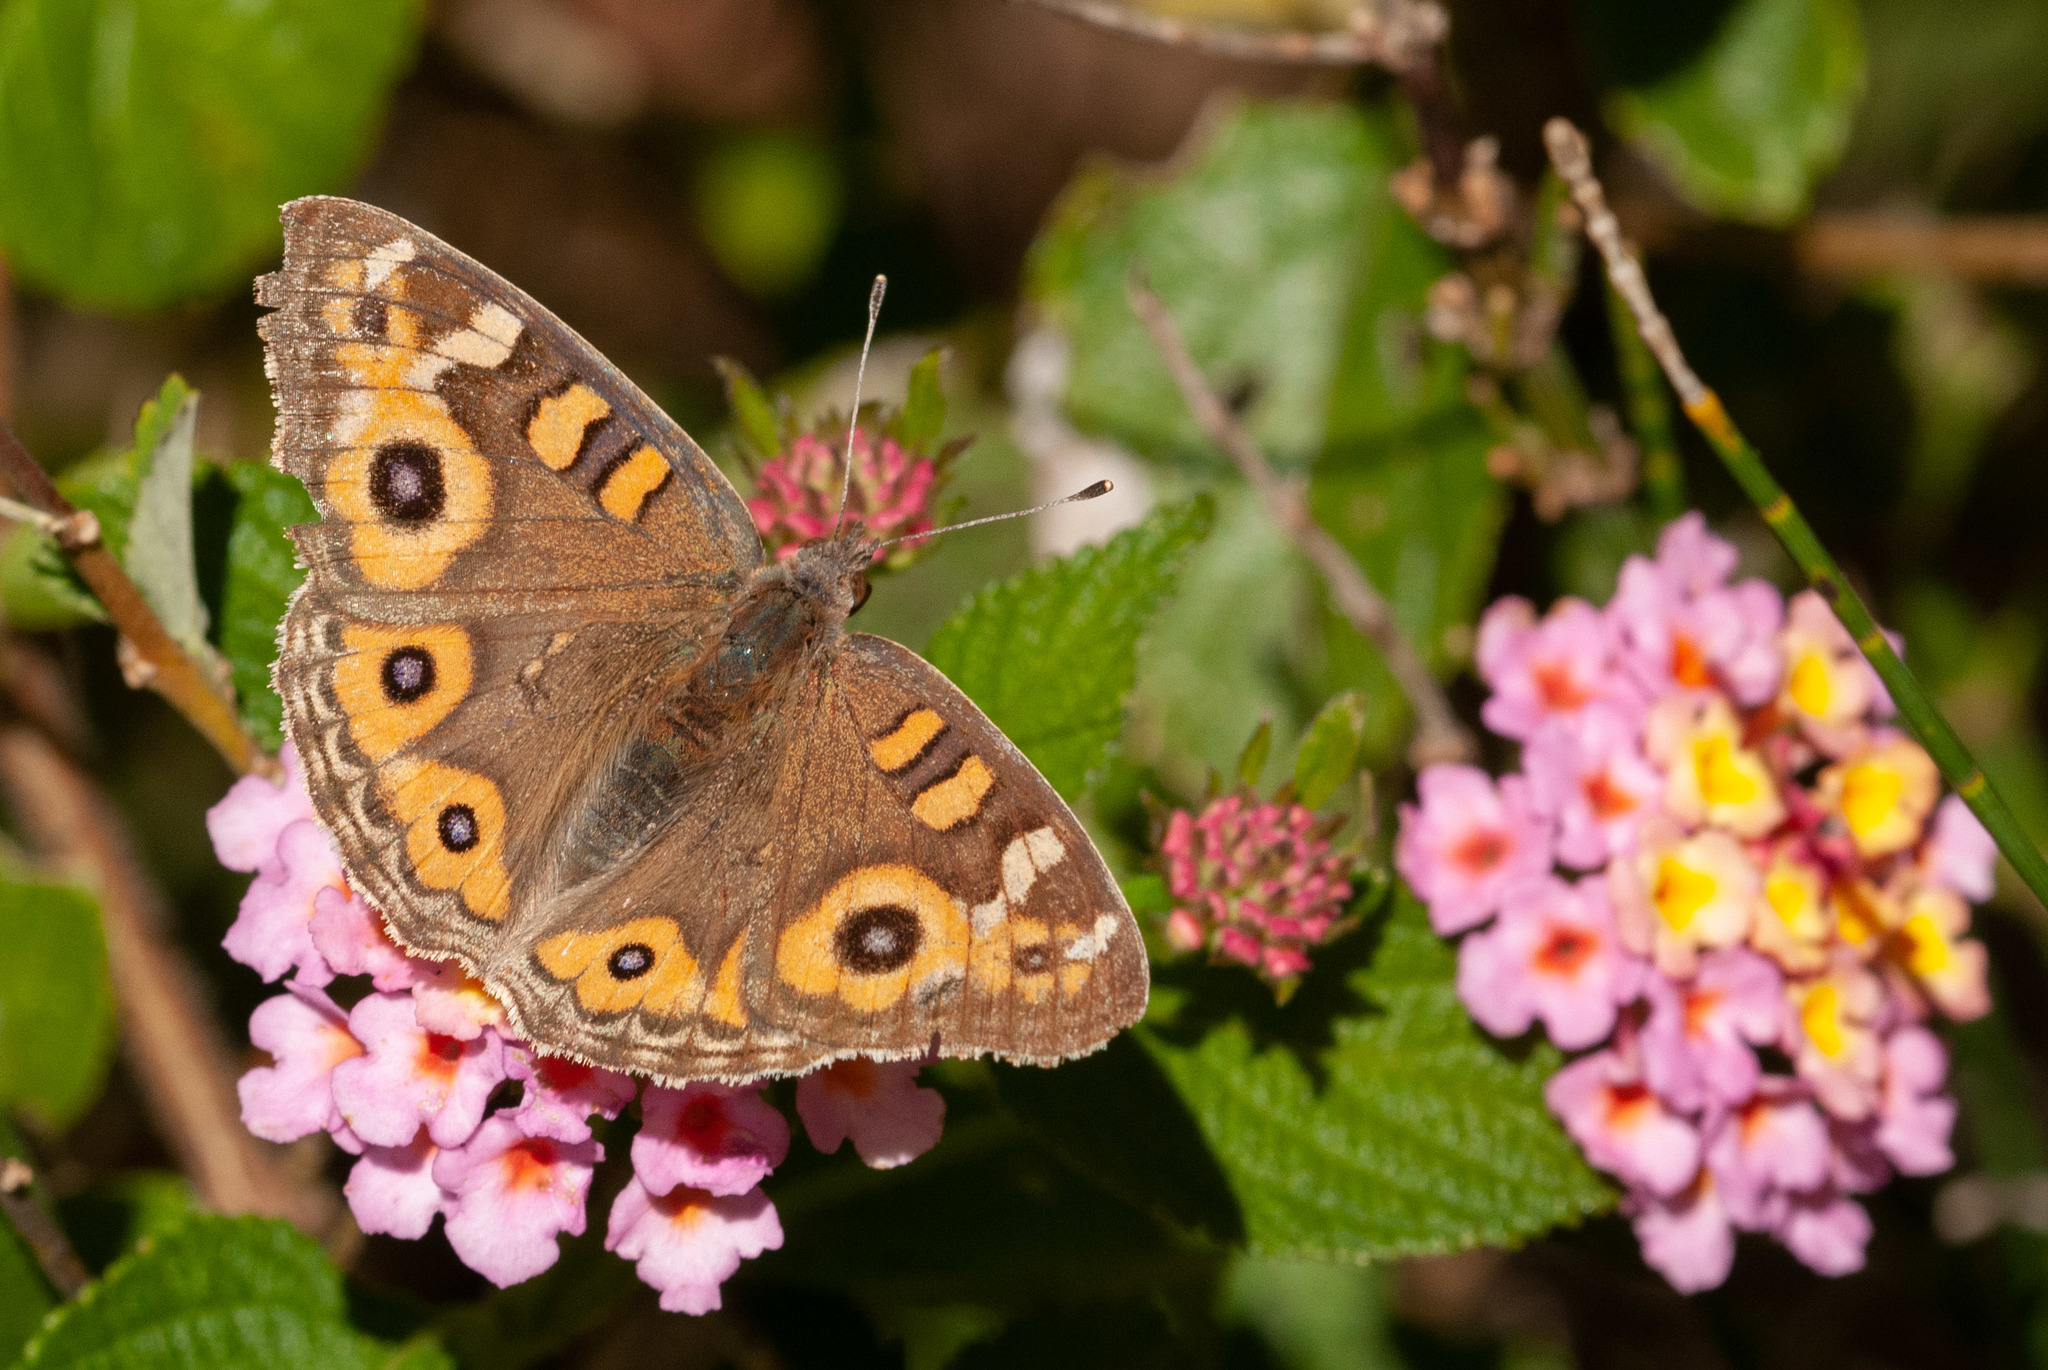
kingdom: Animalia
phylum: Arthropoda
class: Insecta
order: Lepidoptera
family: Nymphalidae
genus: Junonia
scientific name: Junonia villida
